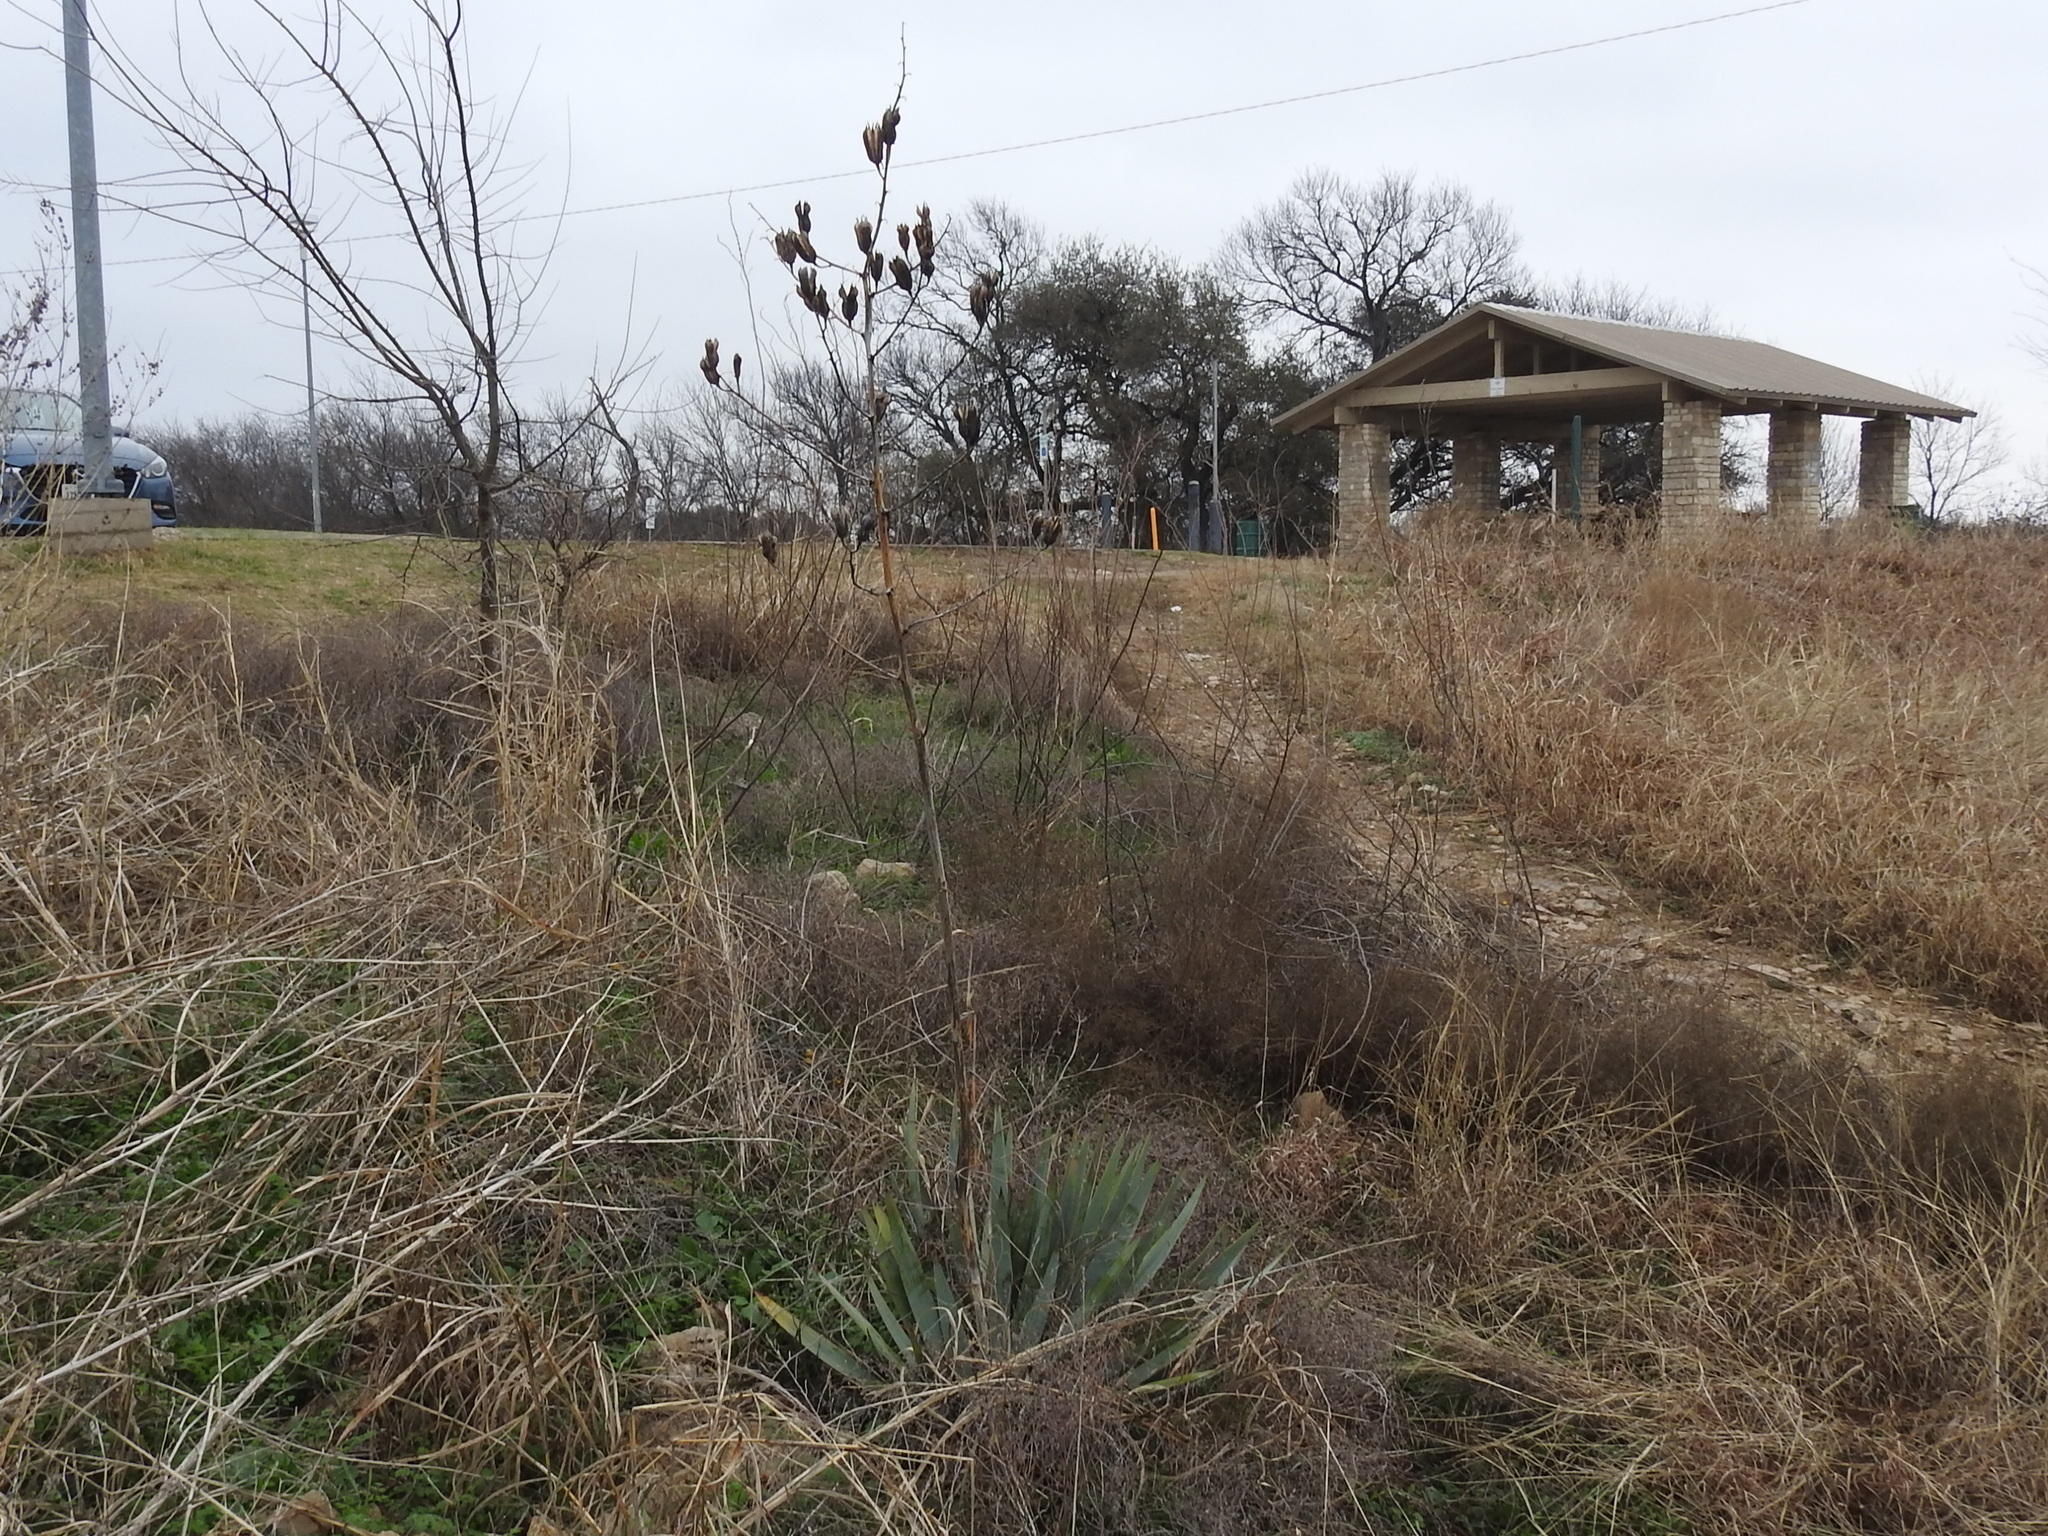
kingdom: Plantae
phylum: Tracheophyta
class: Liliopsida
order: Asparagales
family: Asparagaceae
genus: Yucca
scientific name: Yucca pallida
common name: Pale leaf yucca
